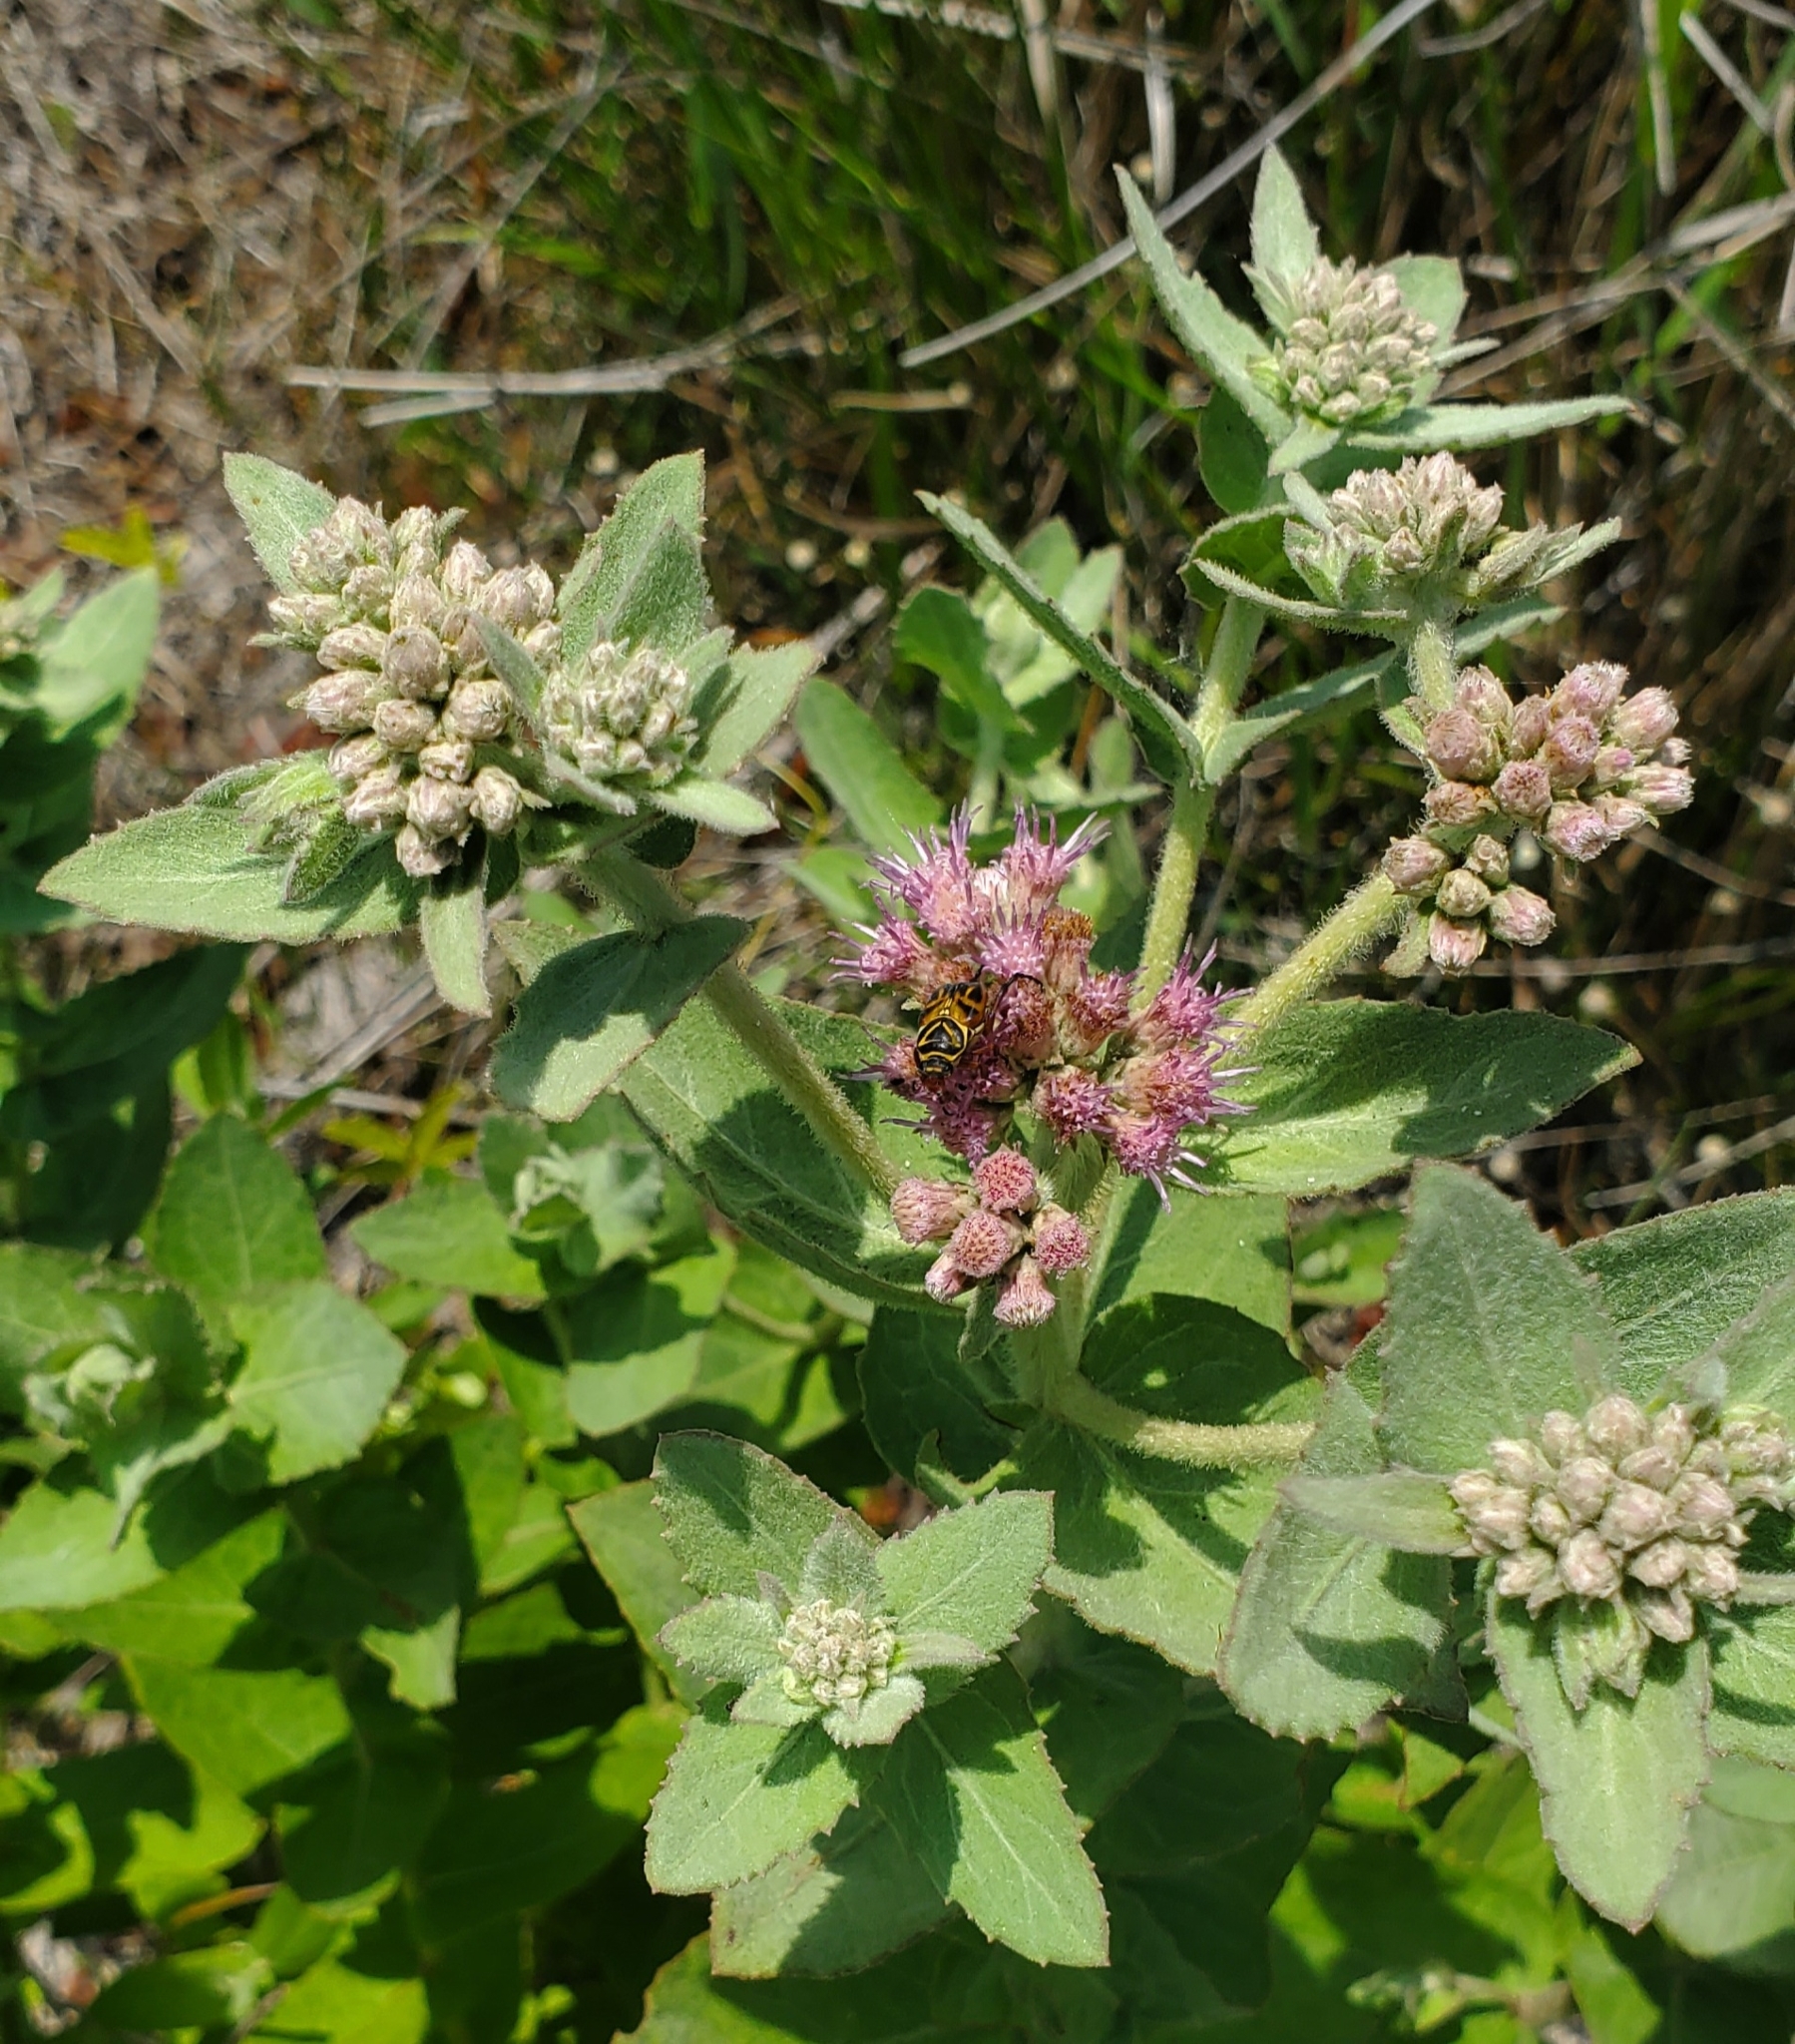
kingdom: Plantae
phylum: Tracheophyta
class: Magnoliopsida
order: Asterales
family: Asteraceae
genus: Pluchea
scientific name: Pluchea baccharis
